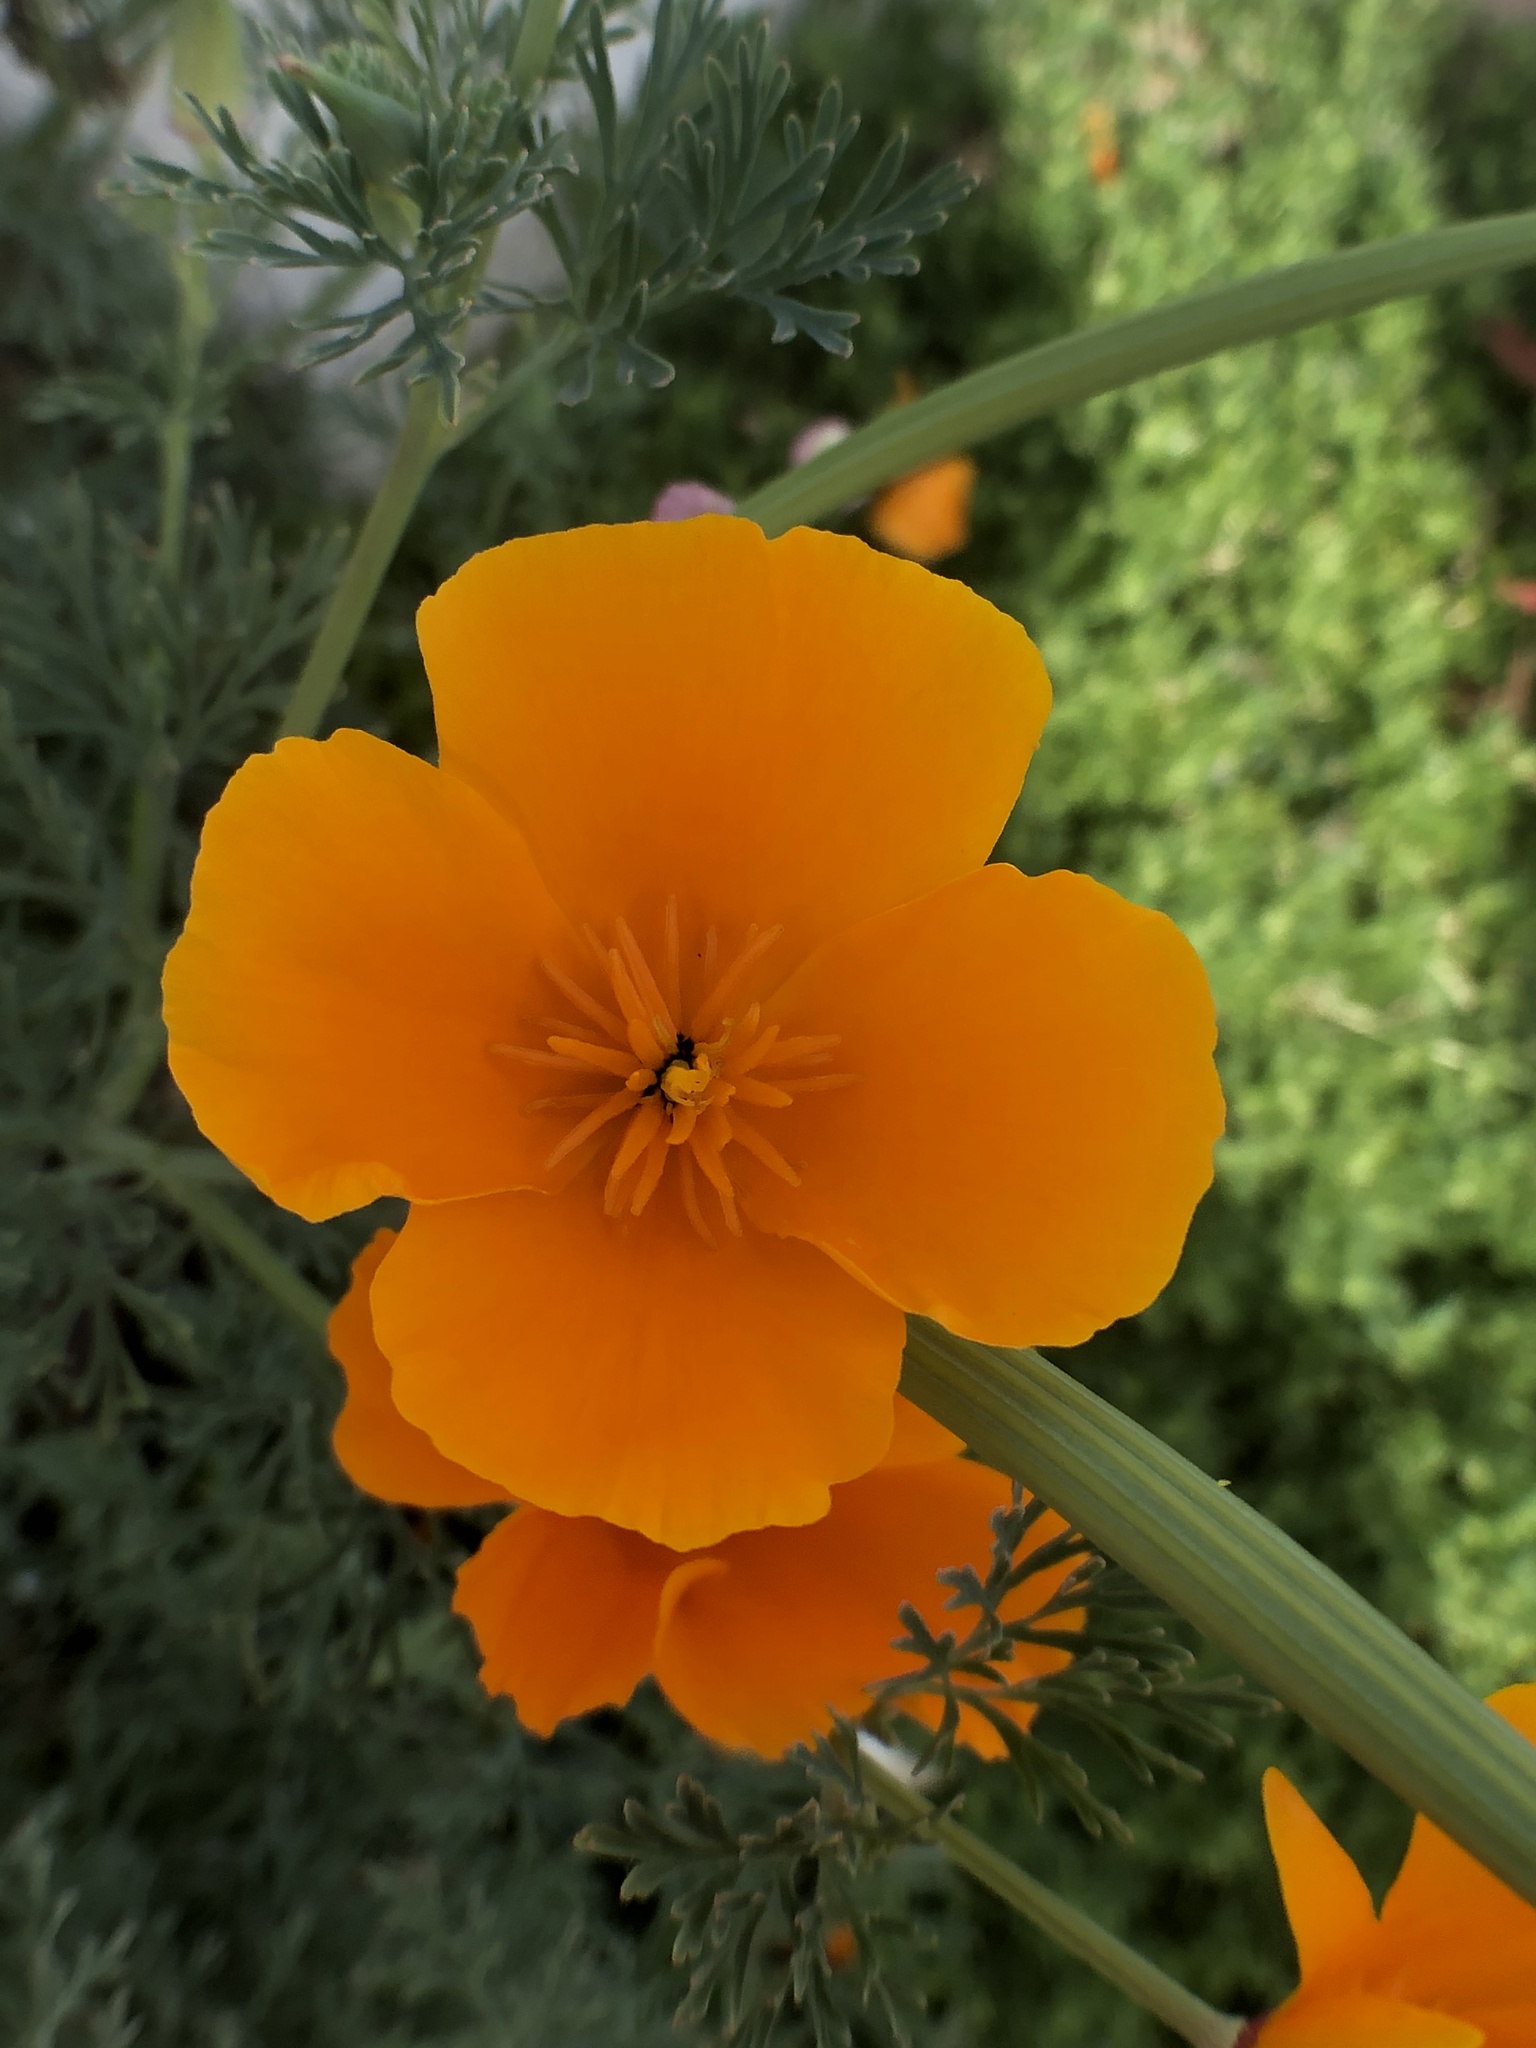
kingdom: Plantae
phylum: Tracheophyta
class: Magnoliopsida
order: Ranunculales
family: Papaveraceae
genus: Eschscholzia
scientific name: Eschscholzia californica
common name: California poppy
